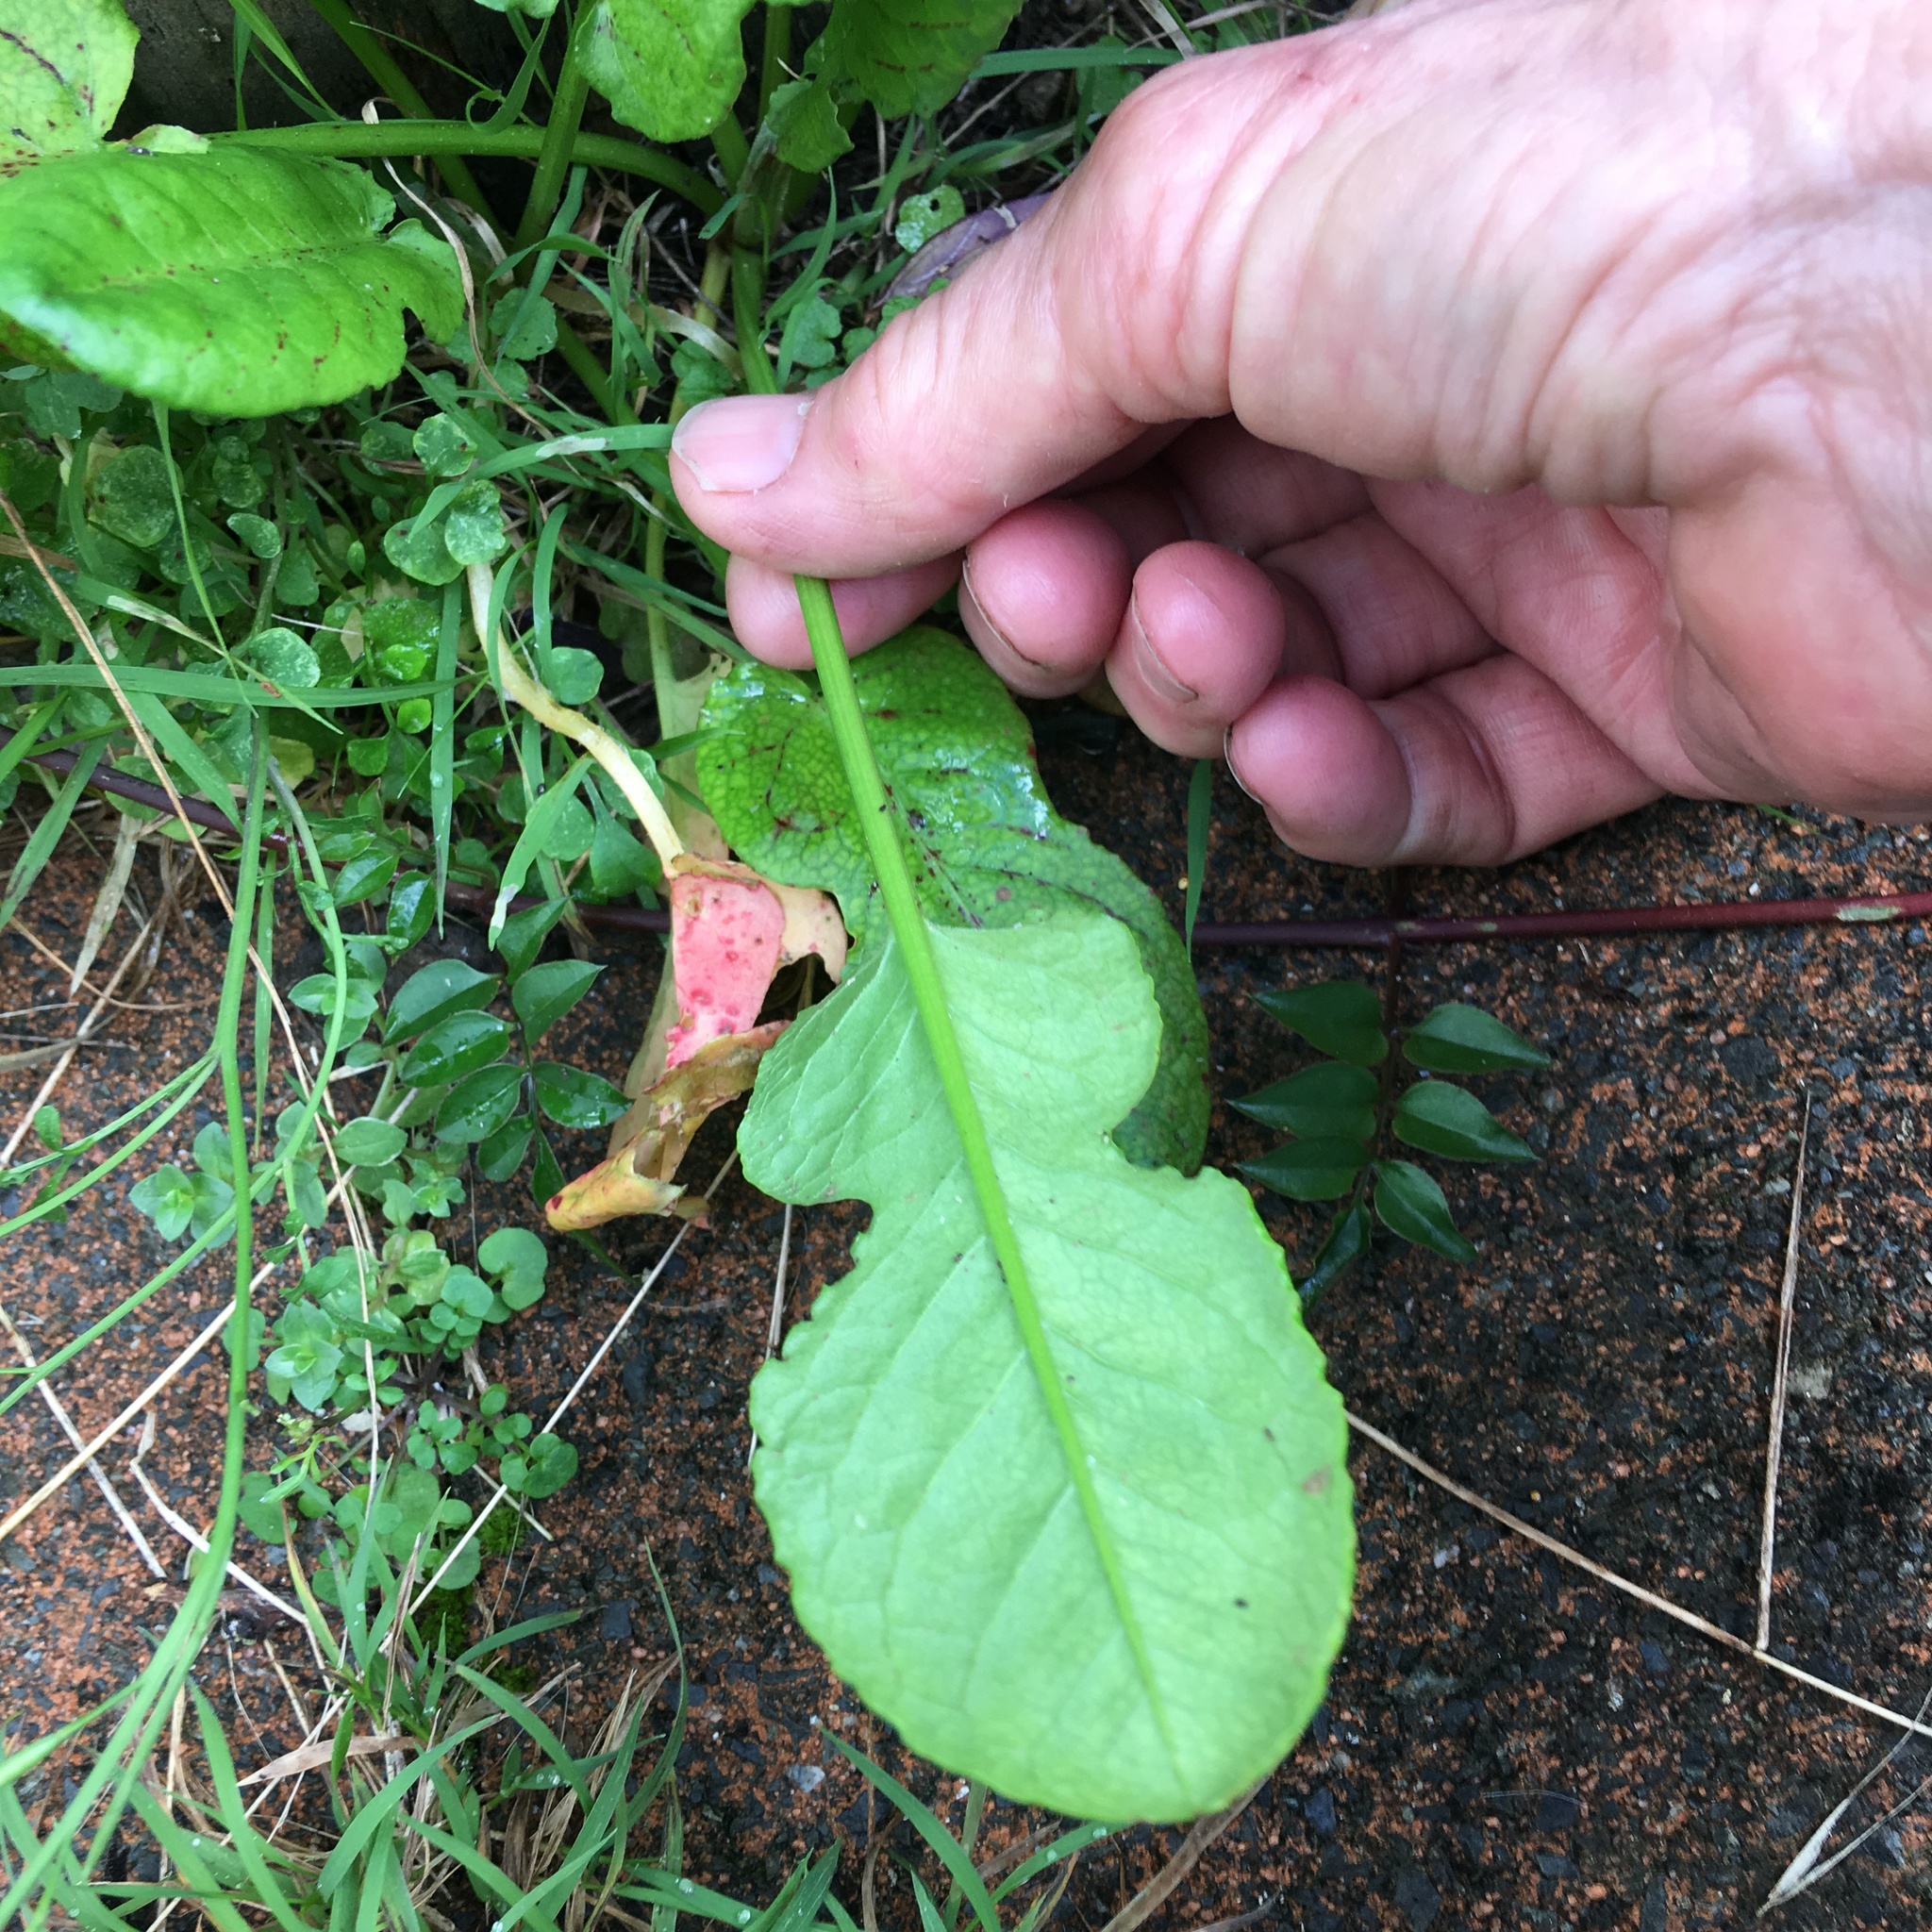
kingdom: Plantae
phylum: Tracheophyta
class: Magnoliopsida
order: Caryophyllales
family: Polygonaceae
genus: Rumex
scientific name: Rumex pulcher
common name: Fiddle dock
